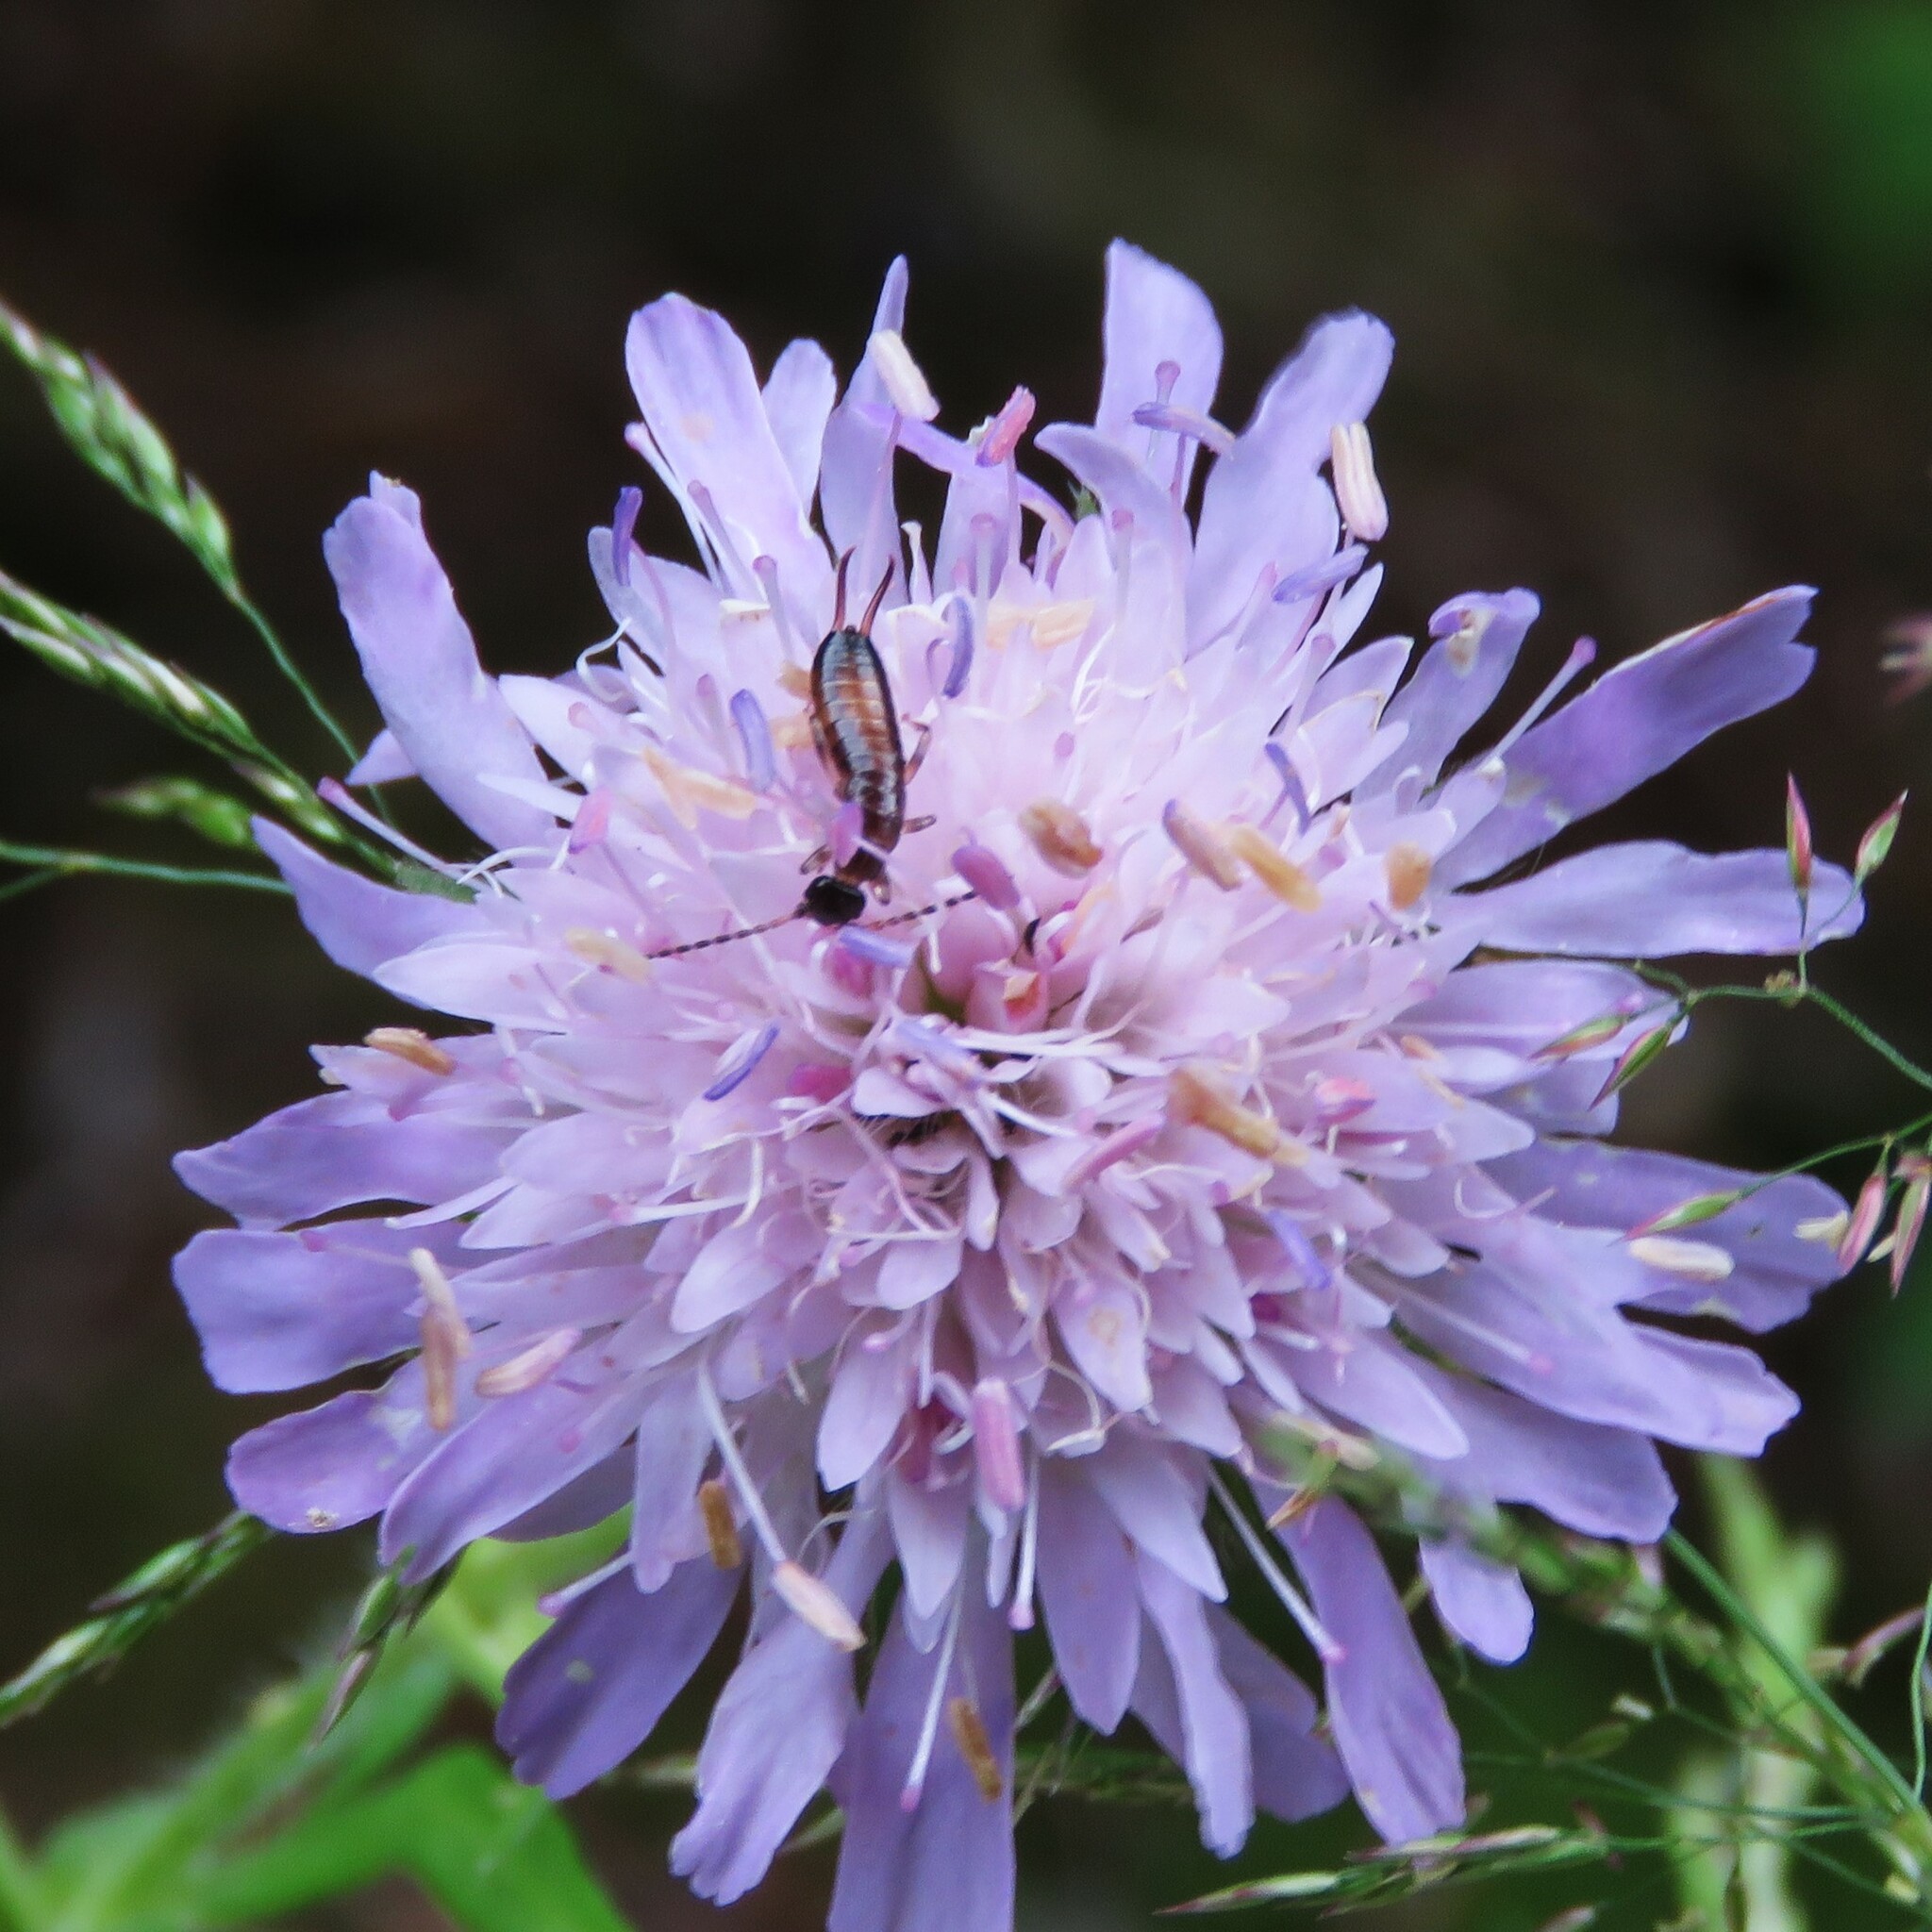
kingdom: Animalia
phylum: Arthropoda
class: Insecta
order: Dermaptera
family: Forficulidae
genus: Apterygida
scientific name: Apterygida albipennis
